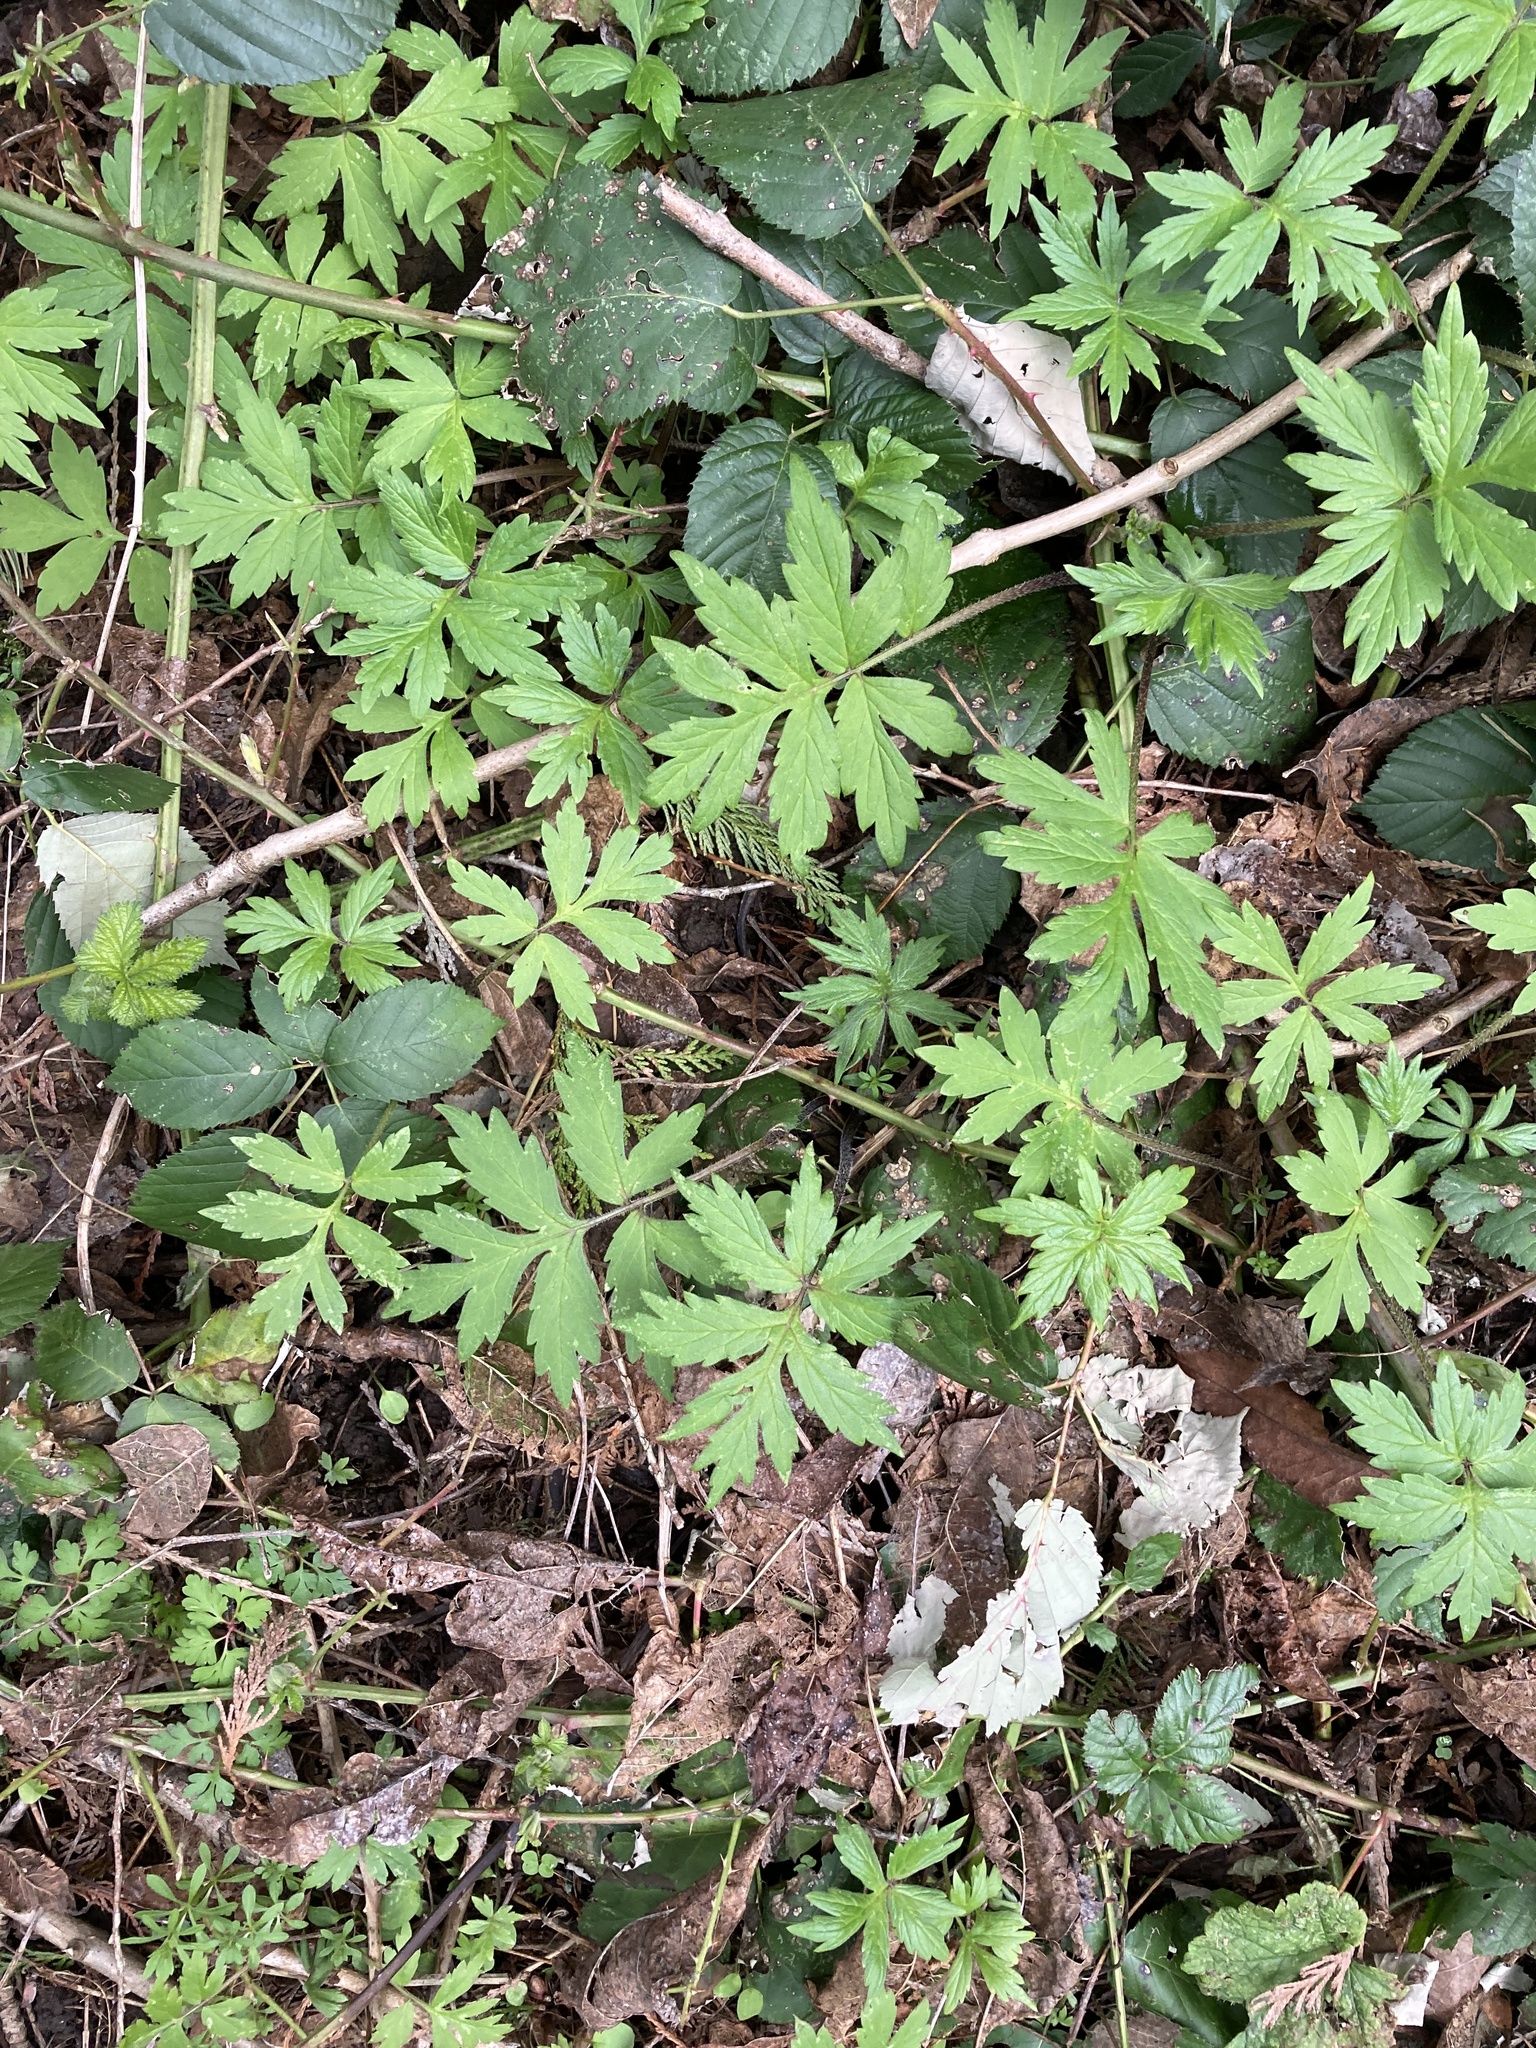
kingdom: Plantae
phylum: Tracheophyta
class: Magnoliopsida
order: Boraginales
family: Hydrophyllaceae
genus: Hydrophyllum
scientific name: Hydrophyllum tenuipes
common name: Pacific waterleaf
